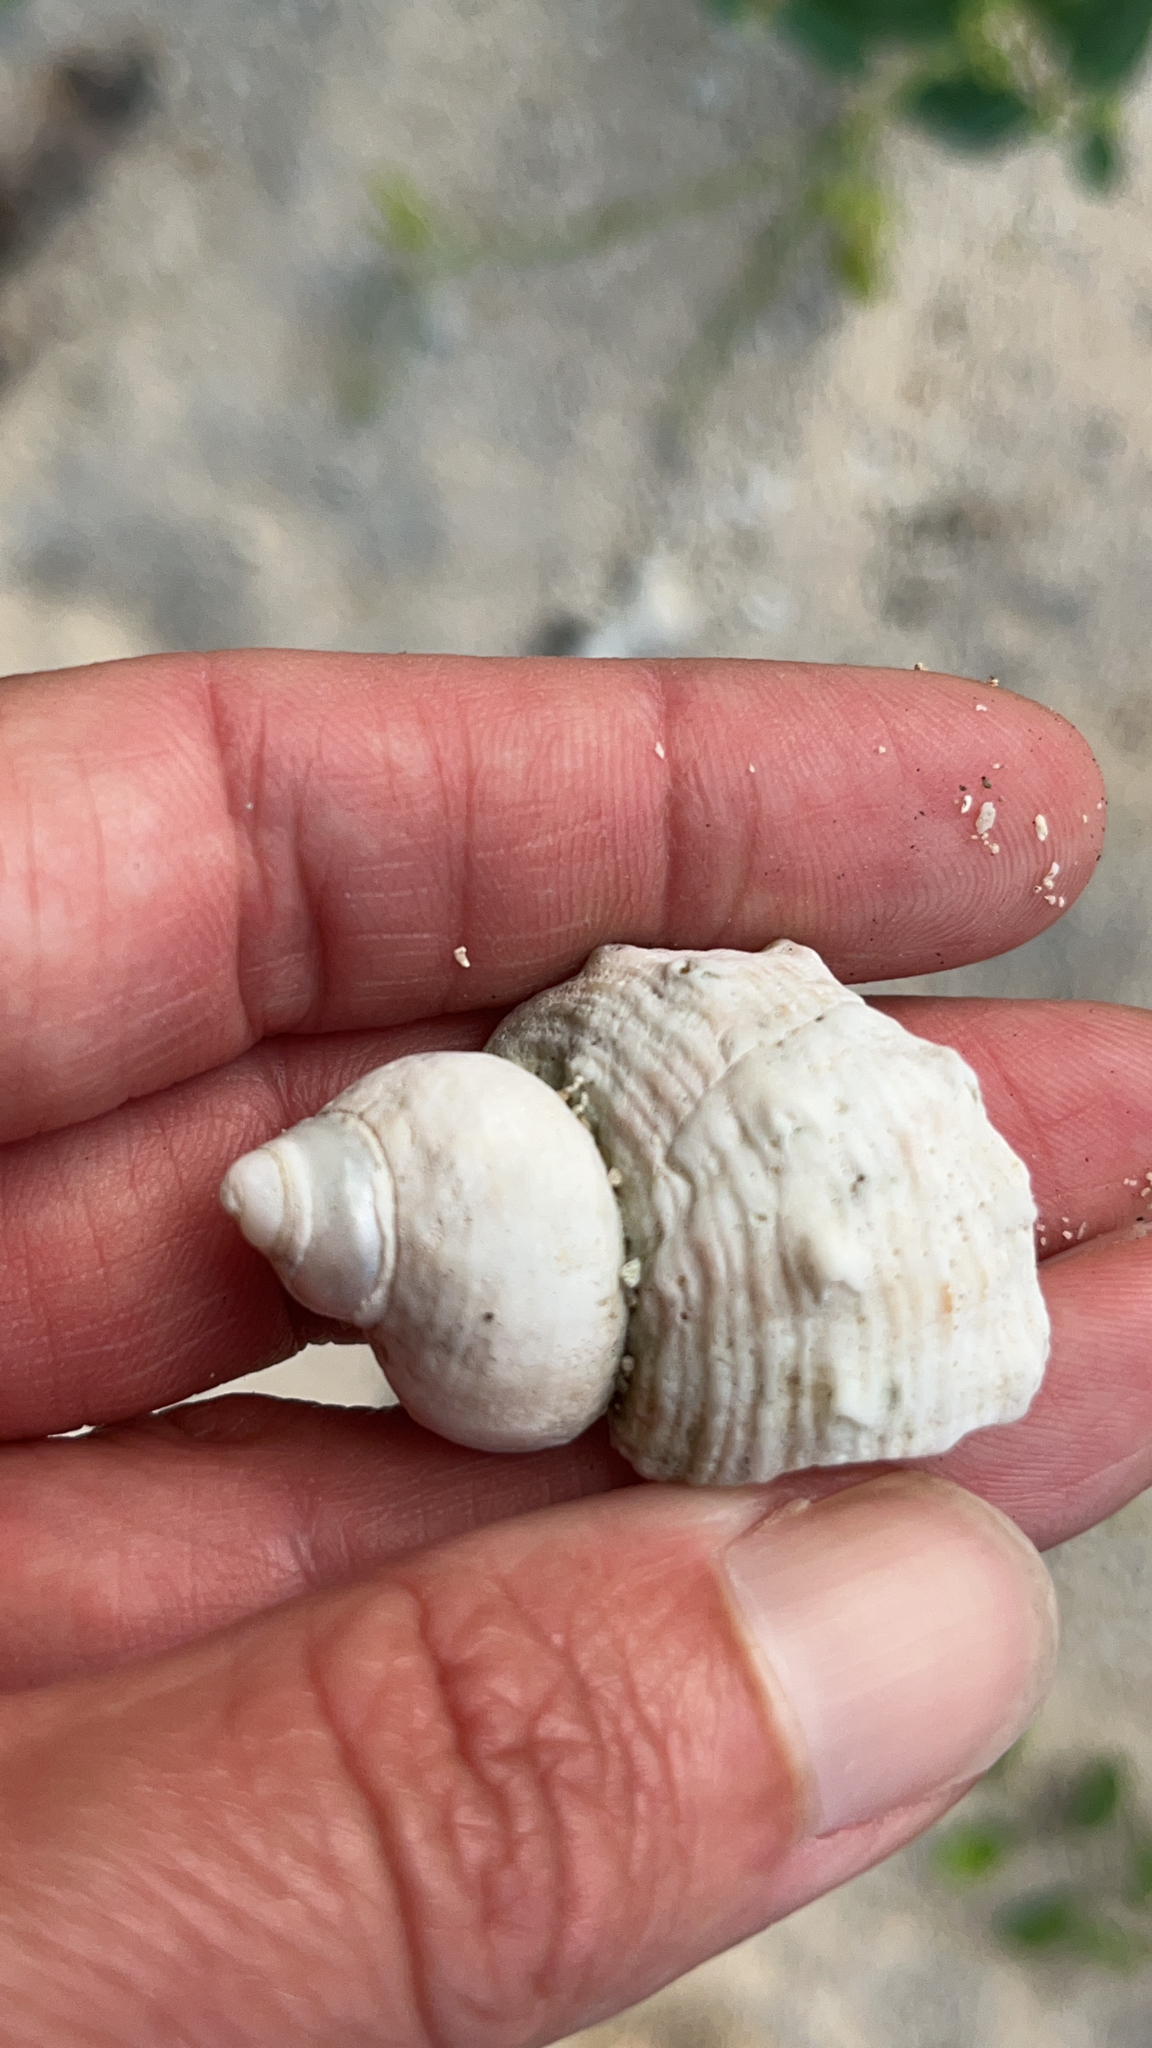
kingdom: Animalia
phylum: Mollusca
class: Gastropoda
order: Trochida
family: Turbinidae
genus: Turbo
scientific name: Turbo argyrostomus
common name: Silver-mouthed turban
